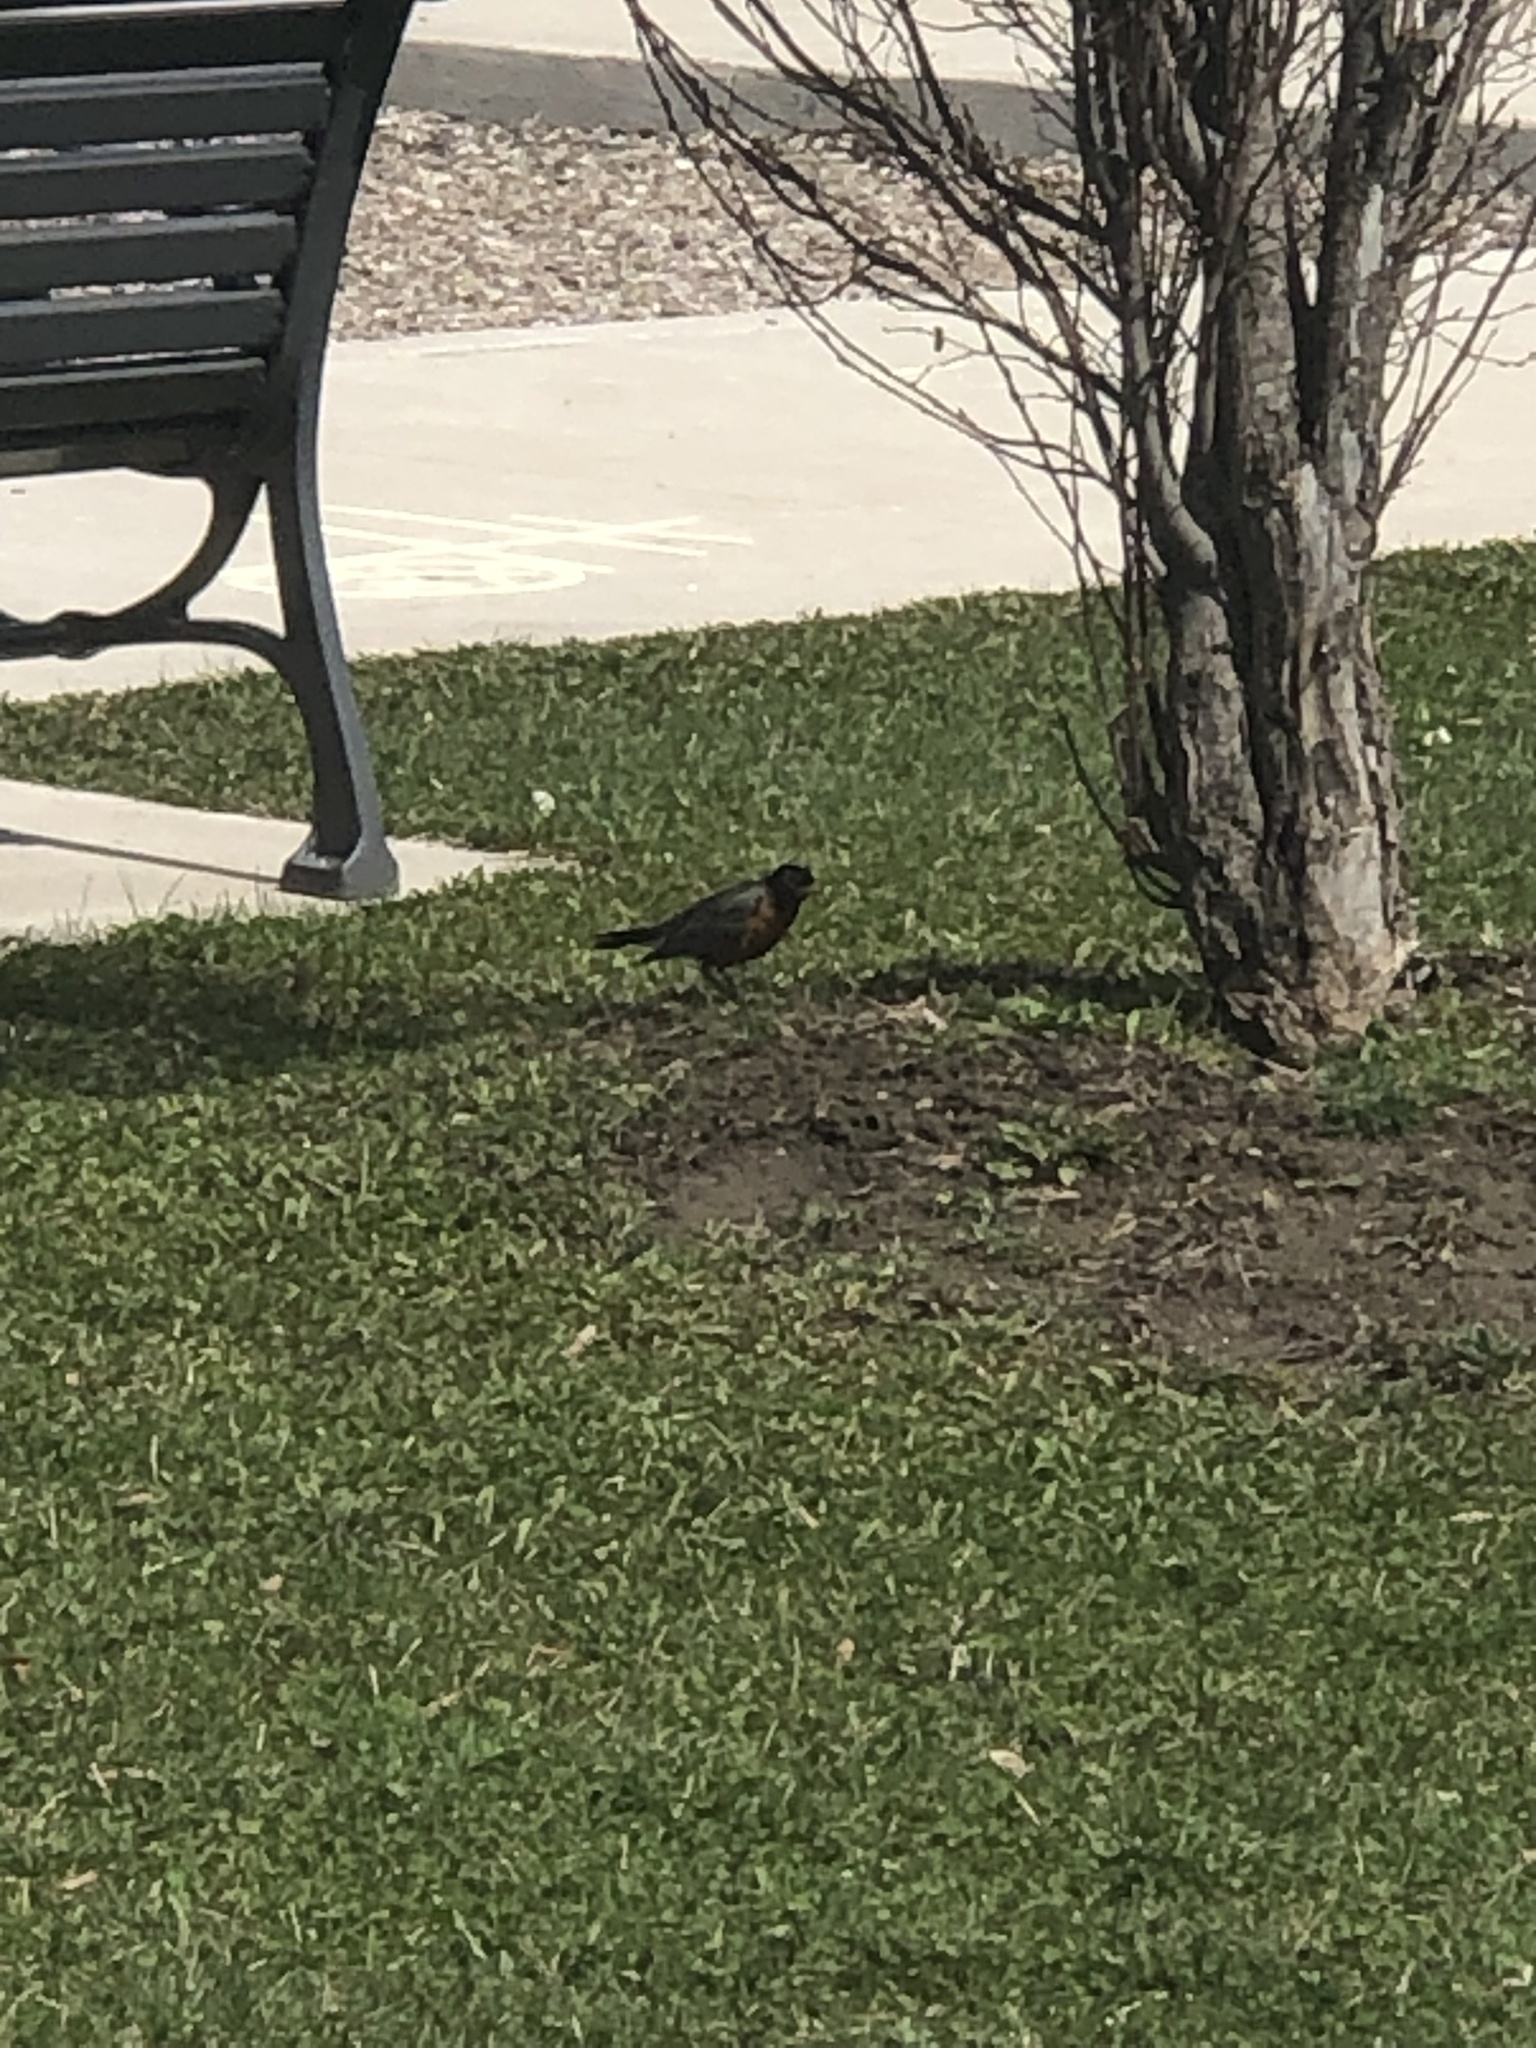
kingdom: Animalia
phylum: Chordata
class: Aves
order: Passeriformes
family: Turdidae
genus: Turdus
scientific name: Turdus migratorius
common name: American robin
